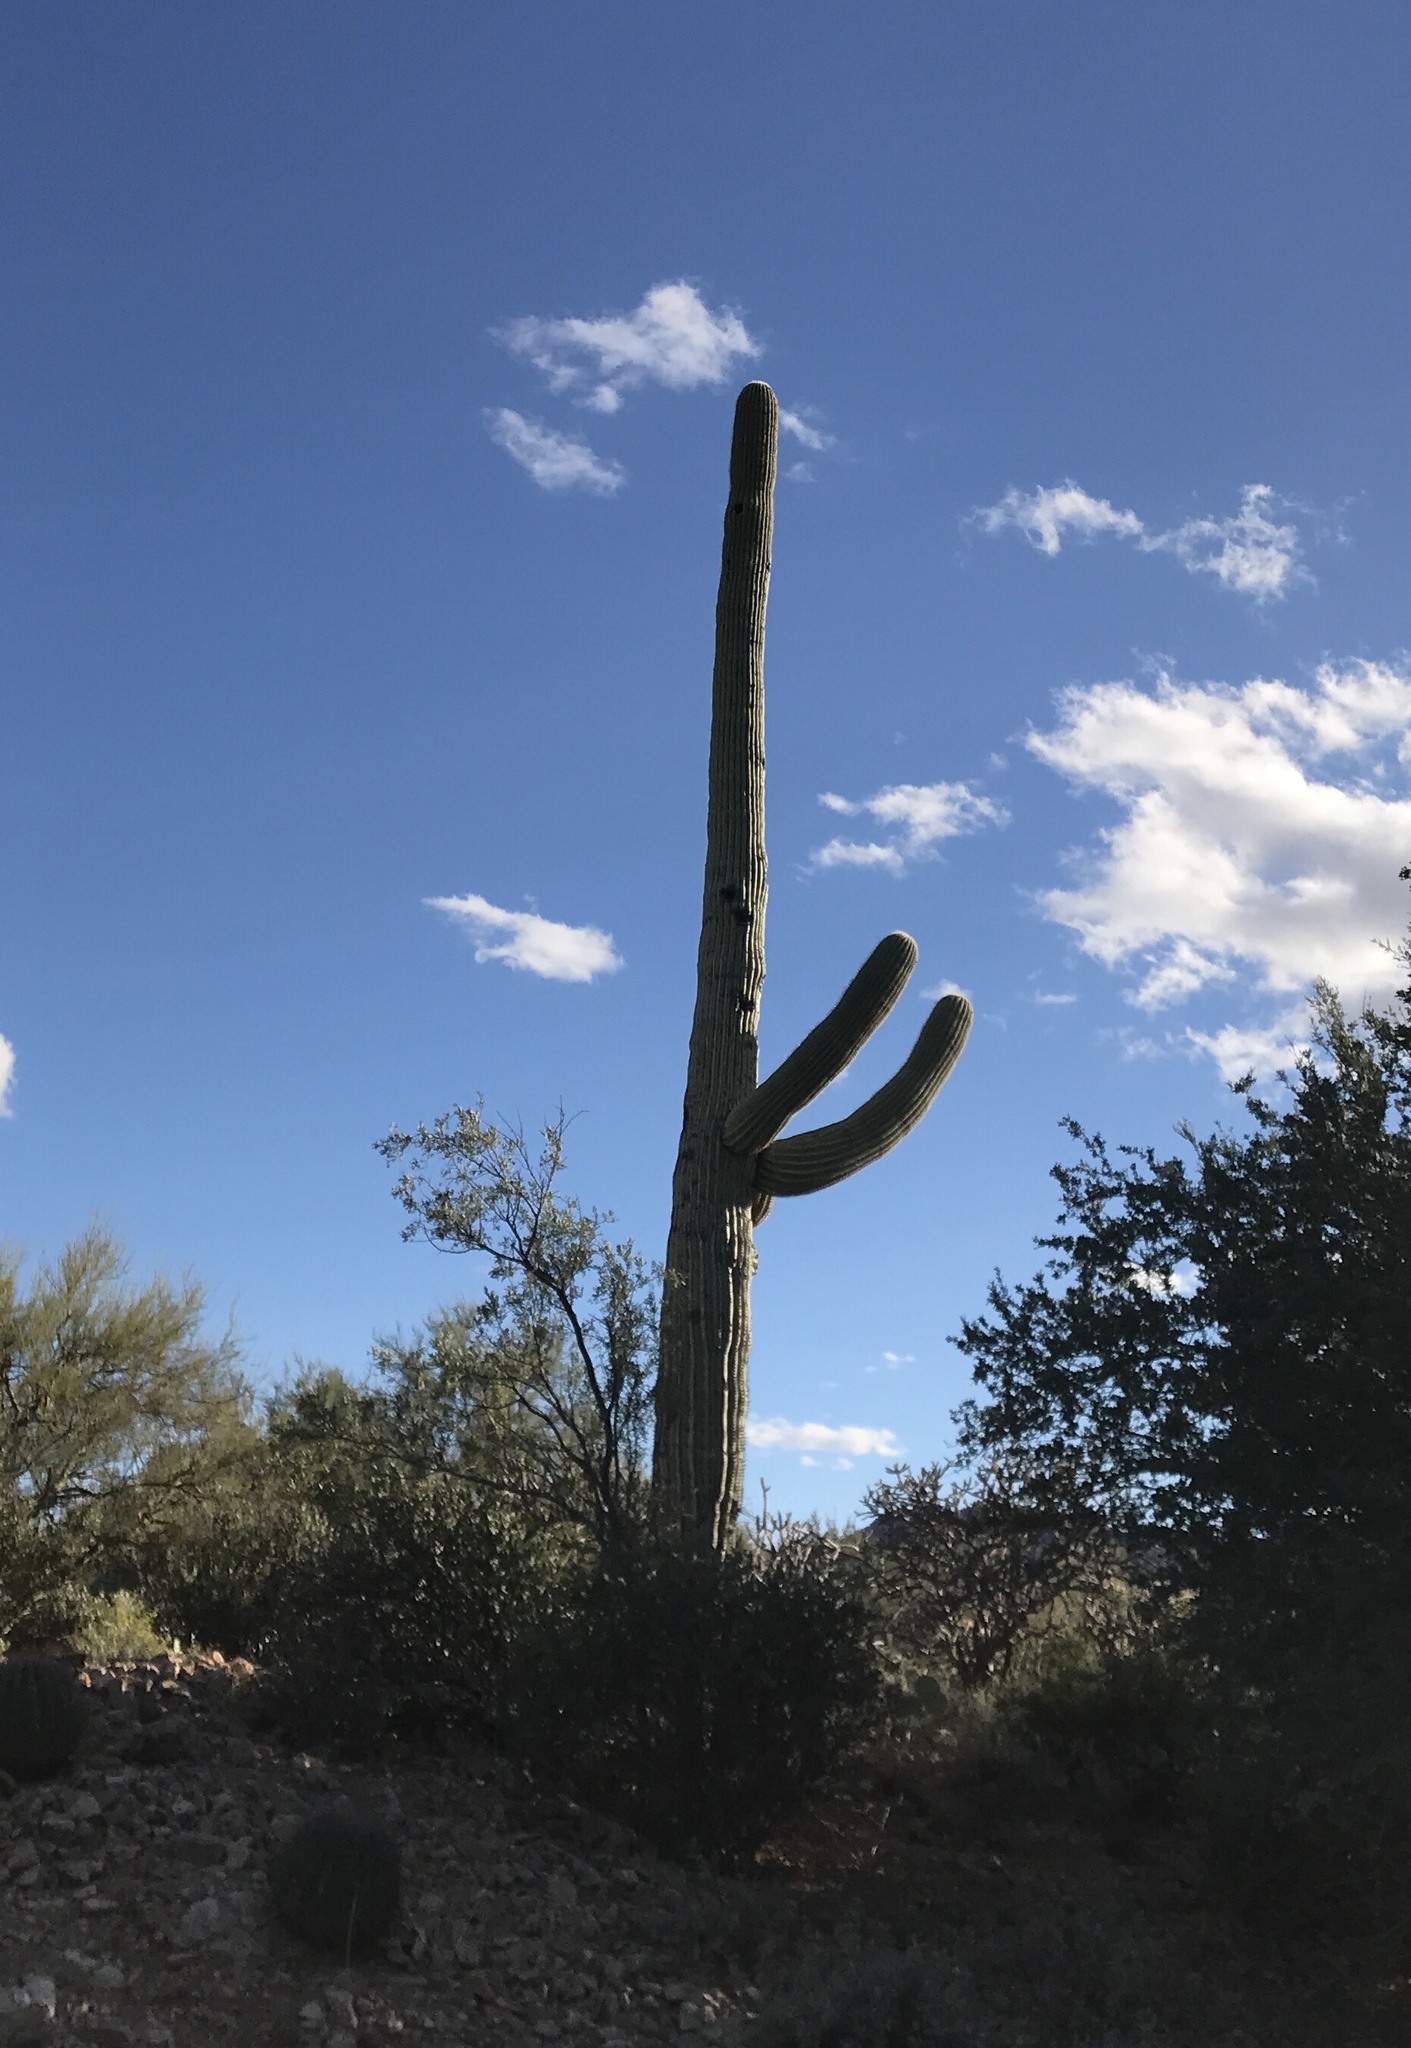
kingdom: Plantae
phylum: Tracheophyta
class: Magnoliopsida
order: Caryophyllales
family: Cactaceae
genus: Carnegiea
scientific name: Carnegiea gigantea
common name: Saguaro
